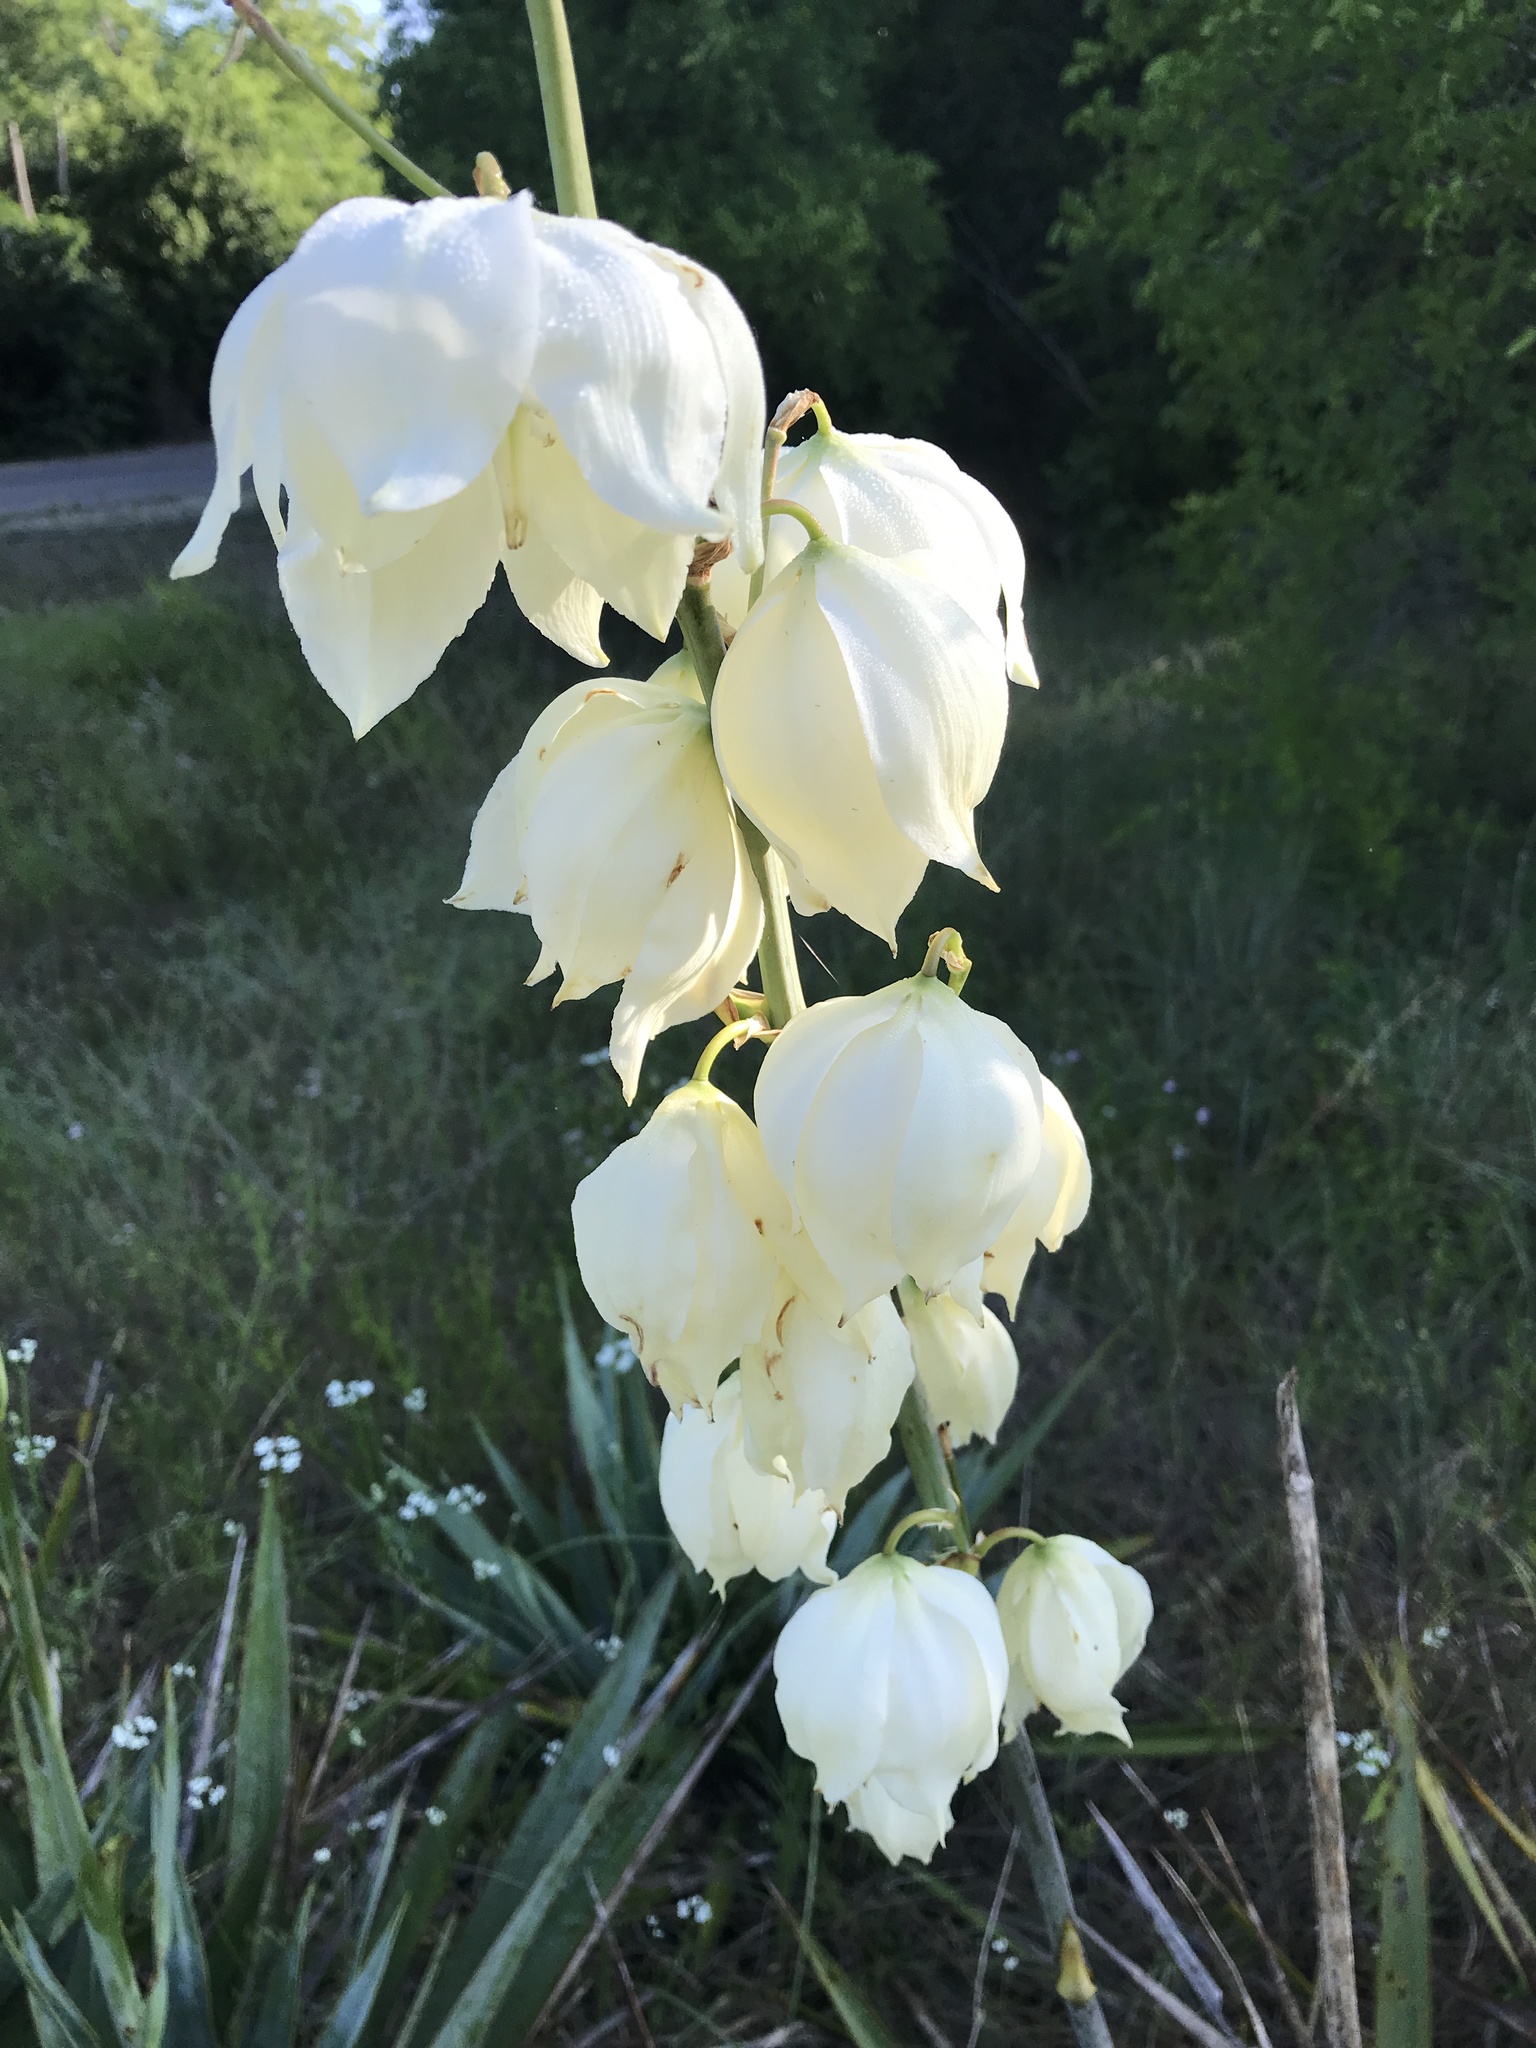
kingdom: Plantae
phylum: Tracheophyta
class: Liliopsida
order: Asparagales
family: Asparagaceae
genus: Yucca
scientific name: Yucca pallida
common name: Pale leaf yucca
